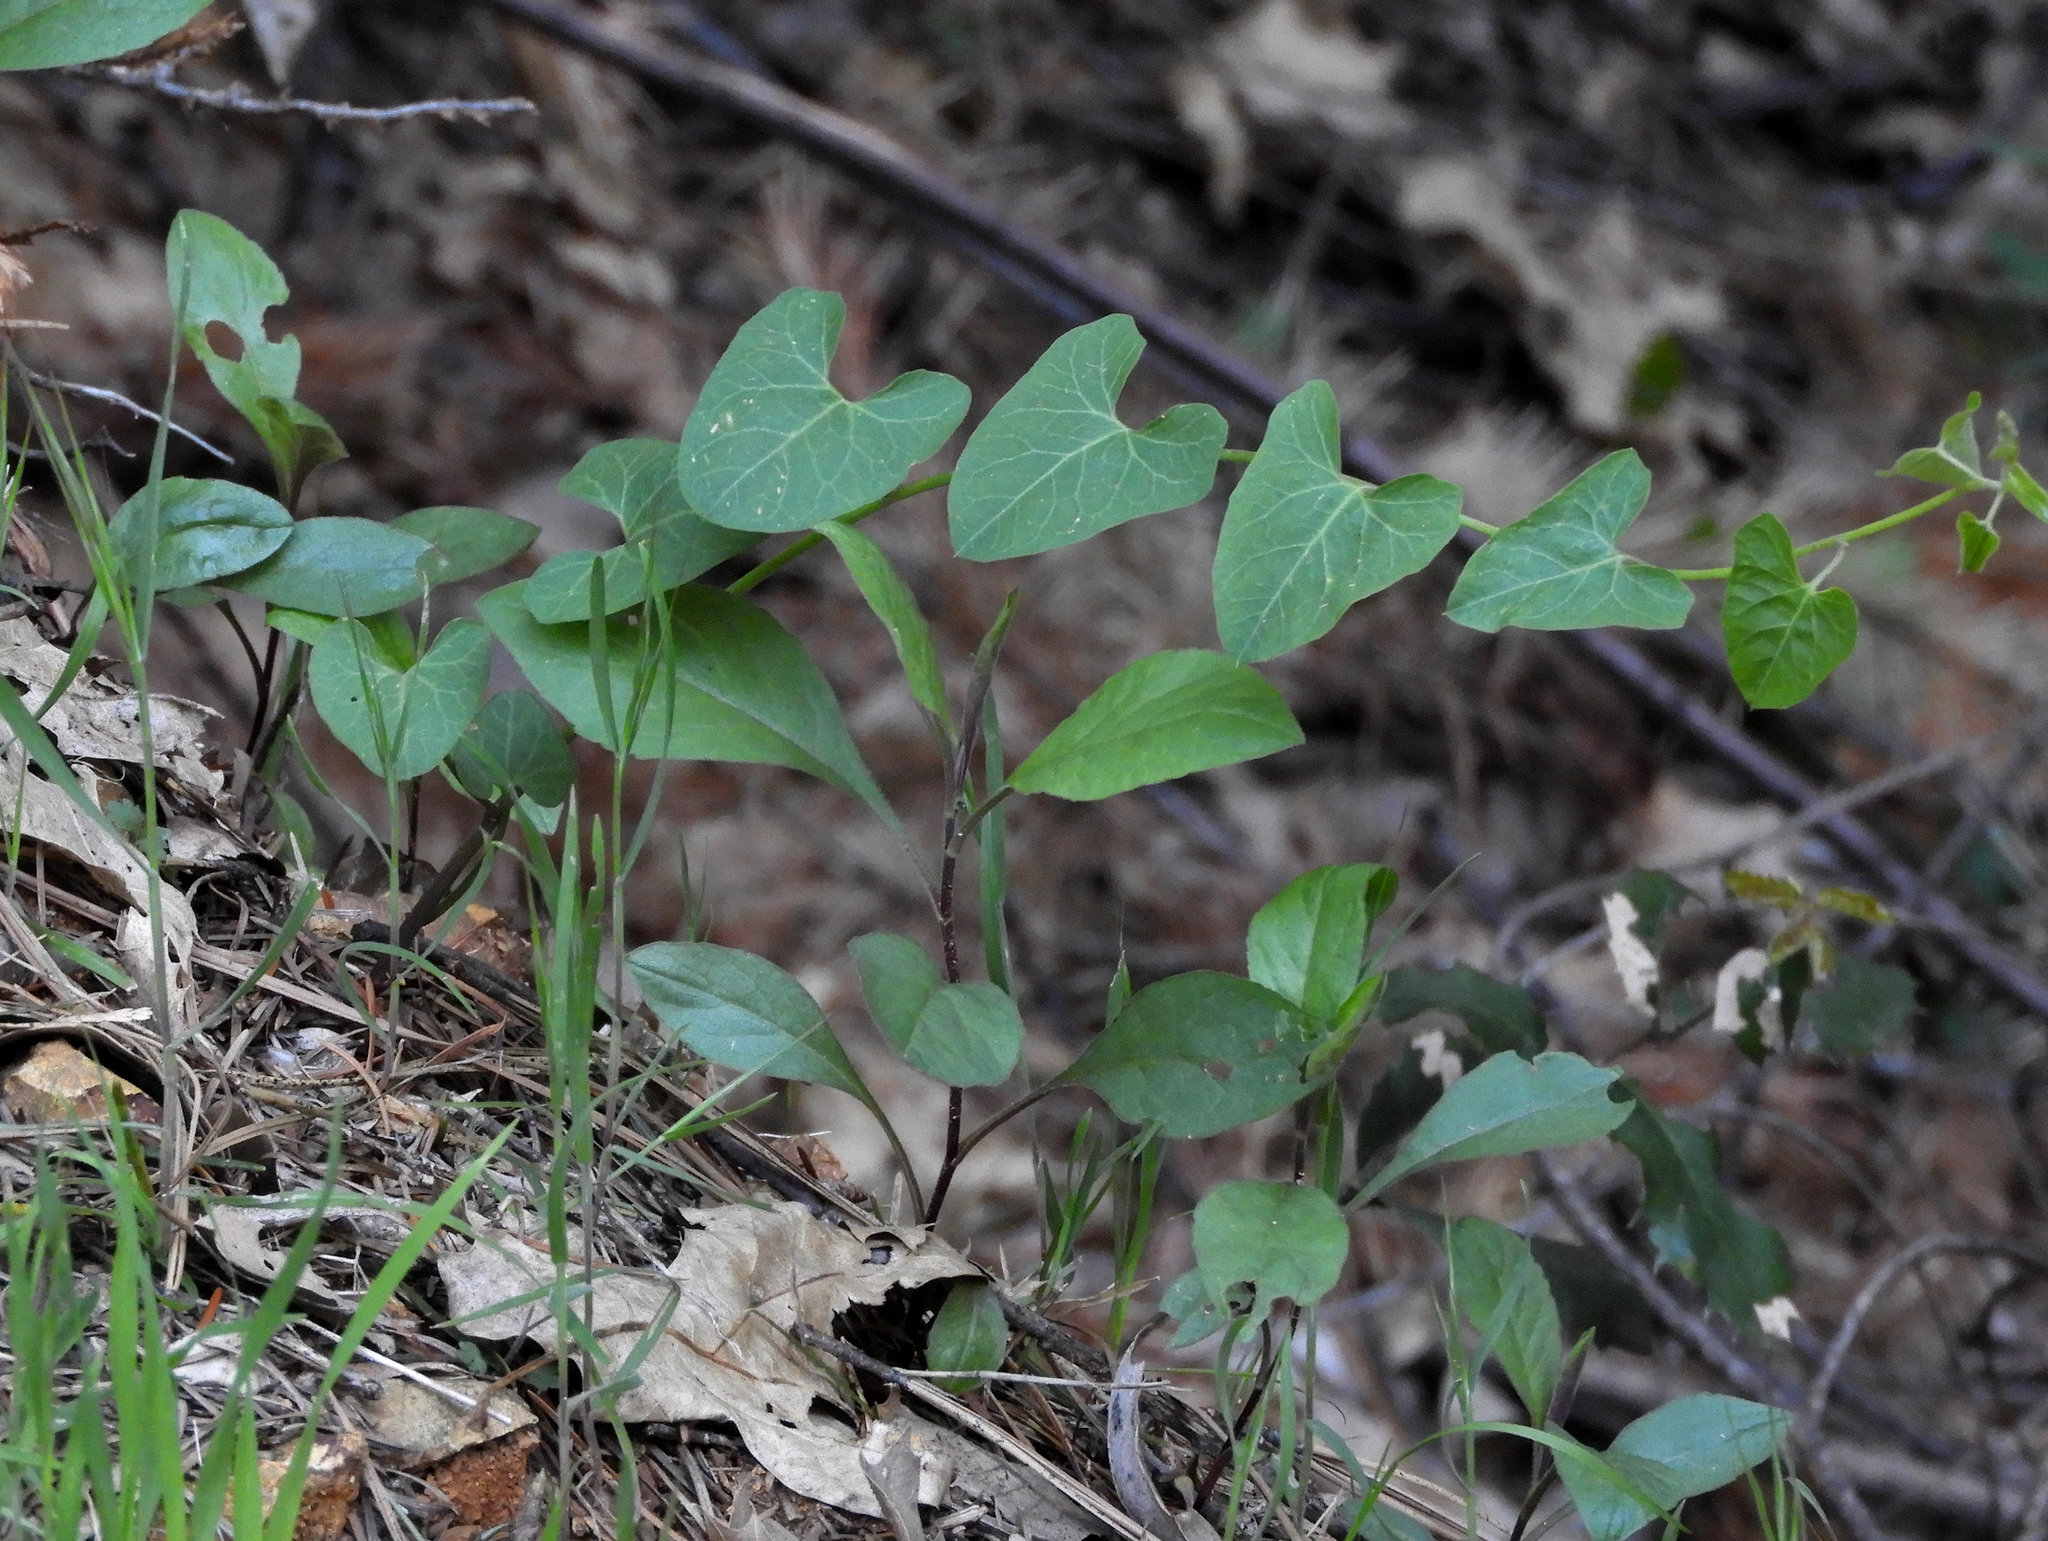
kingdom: Plantae
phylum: Tracheophyta
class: Magnoliopsida
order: Solanales
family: Convolvulaceae
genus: Calystegia
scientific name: Calystegia
